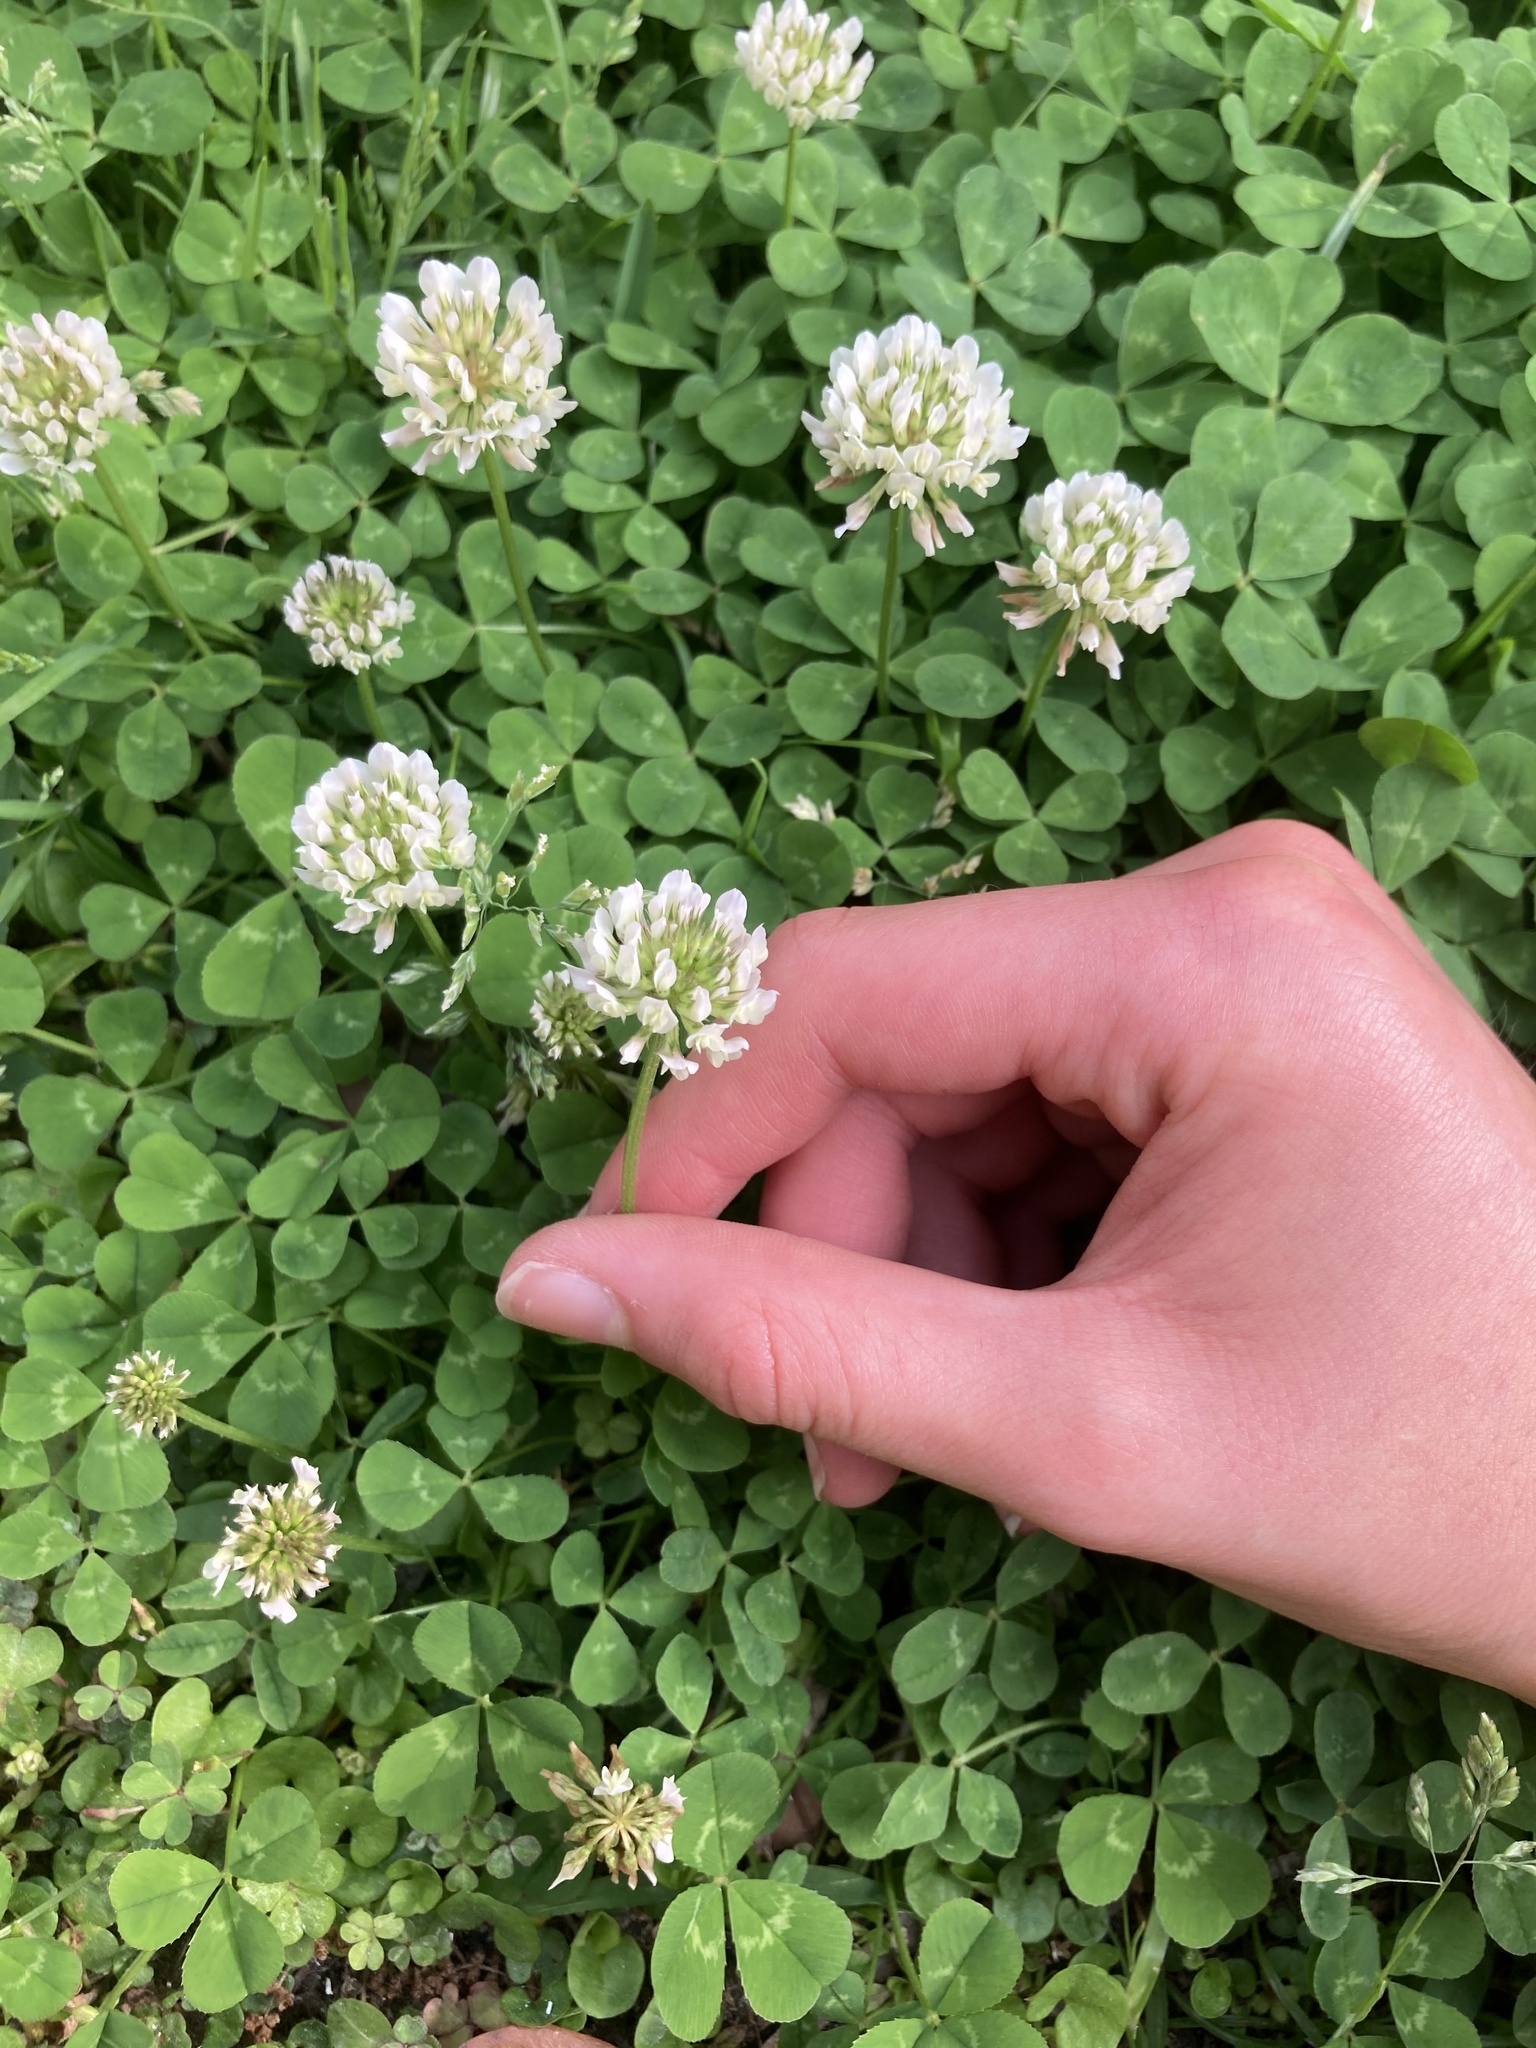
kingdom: Plantae
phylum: Tracheophyta
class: Magnoliopsida
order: Fabales
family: Fabaceae
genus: Trifolium
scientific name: Trifolium repens
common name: White clover
